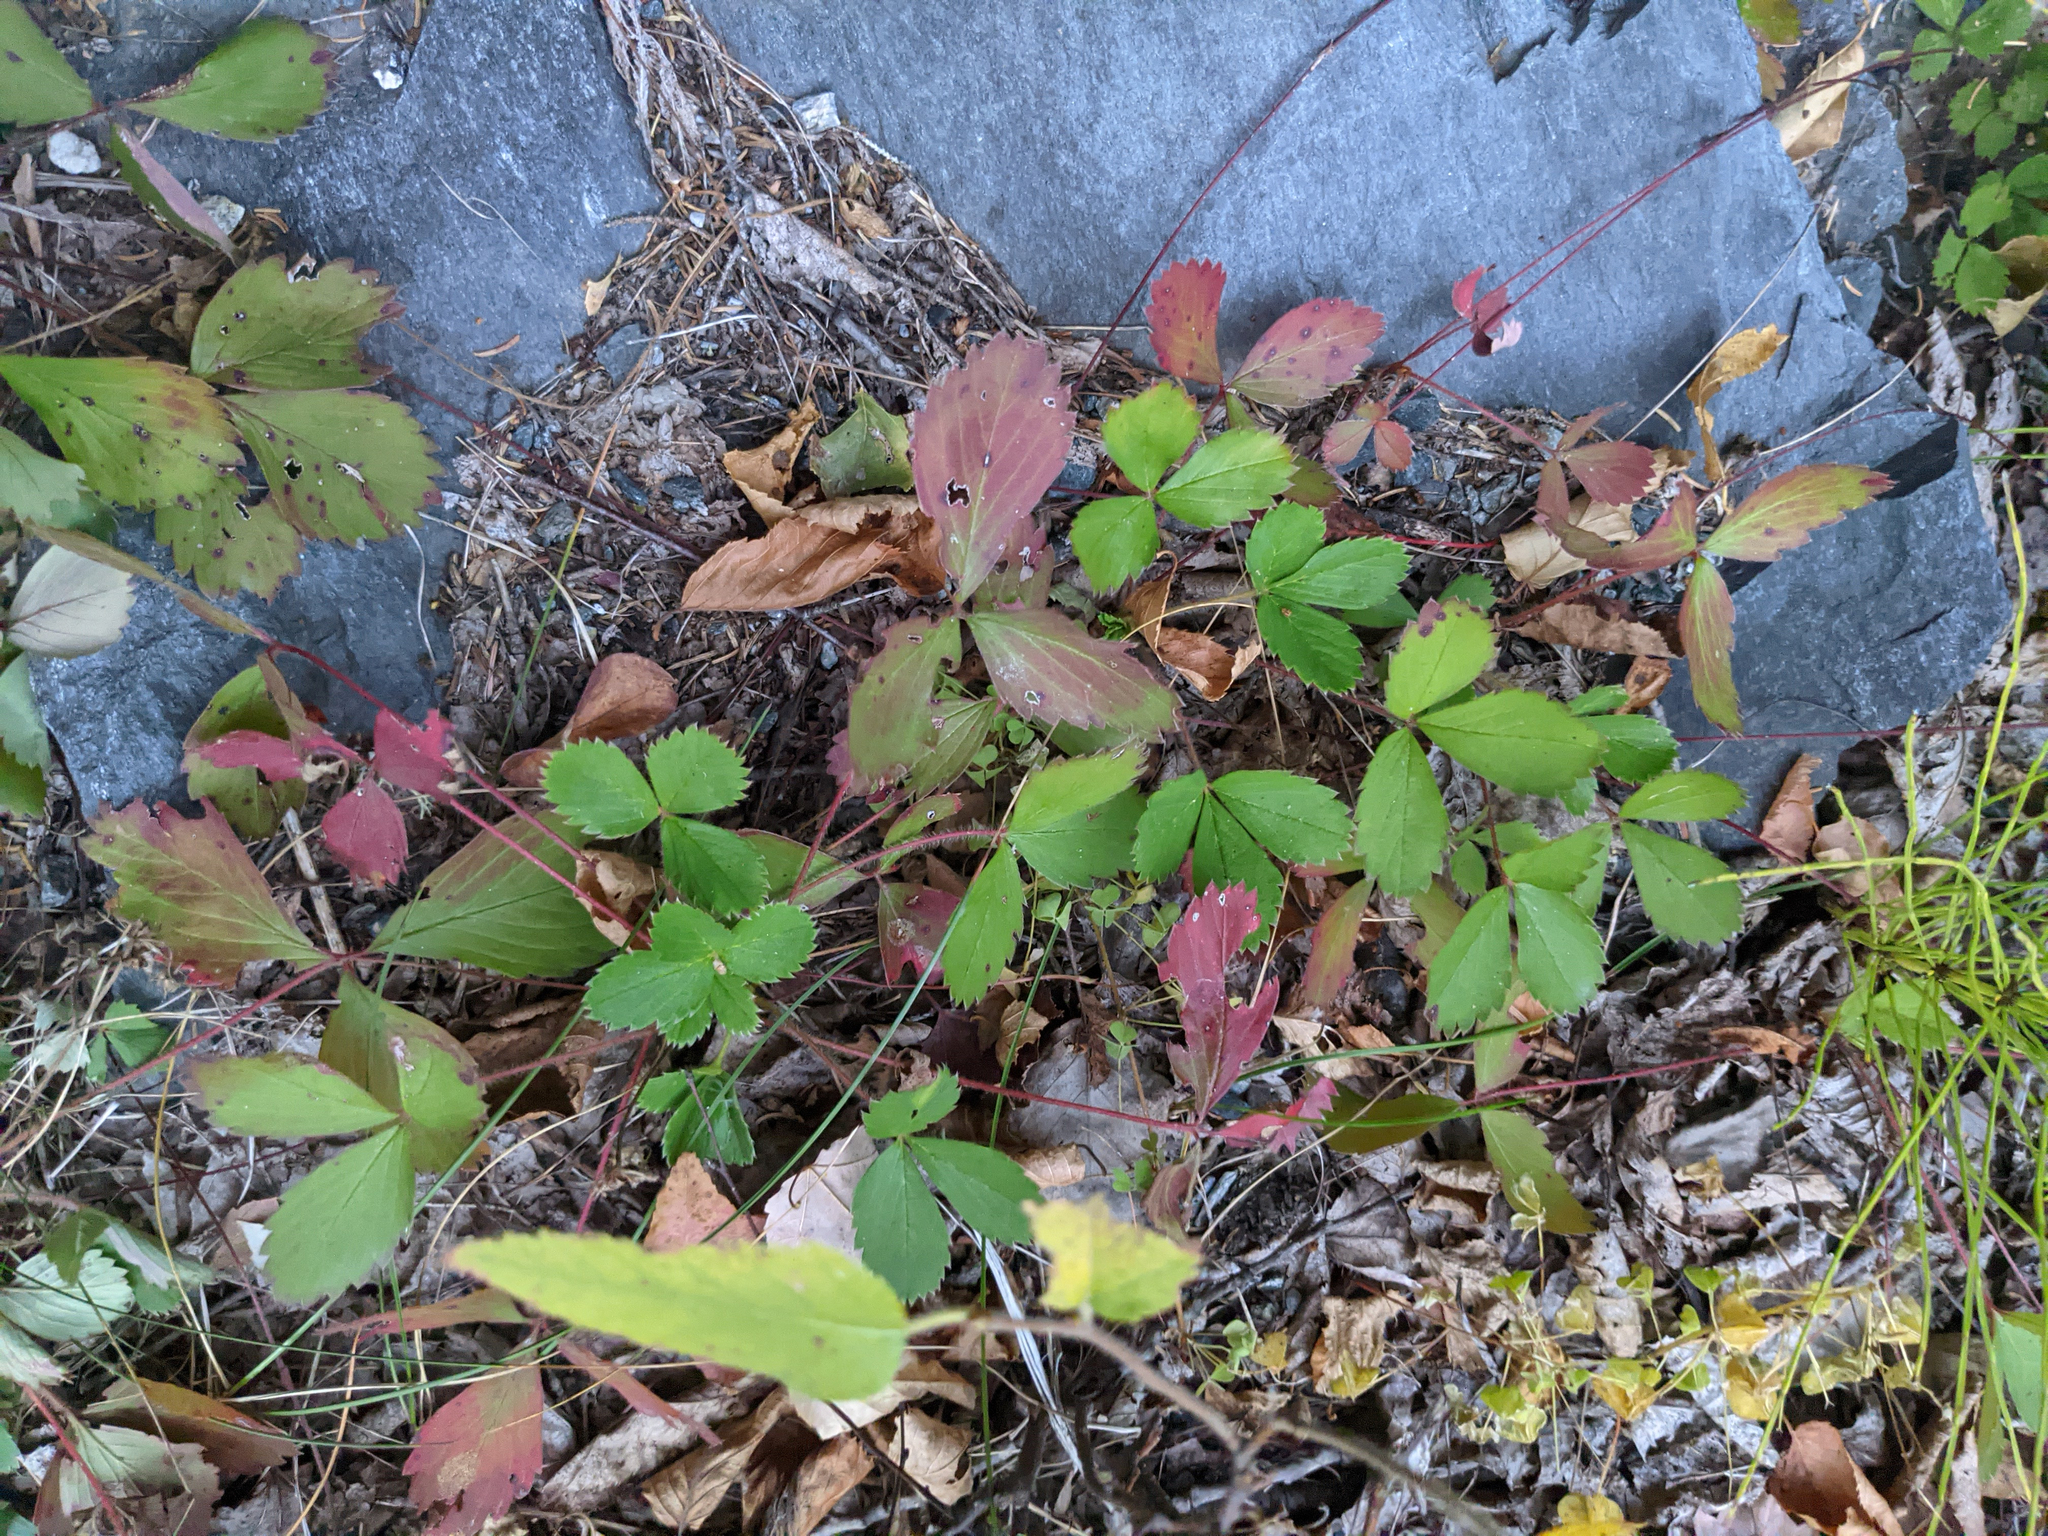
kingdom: Plantae
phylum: Tracheophyta
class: Magnoliopsida
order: Rosales
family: Rosaceae
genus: Fragaria
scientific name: Fragaria virginiana
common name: Thickleaved wild strawberry
